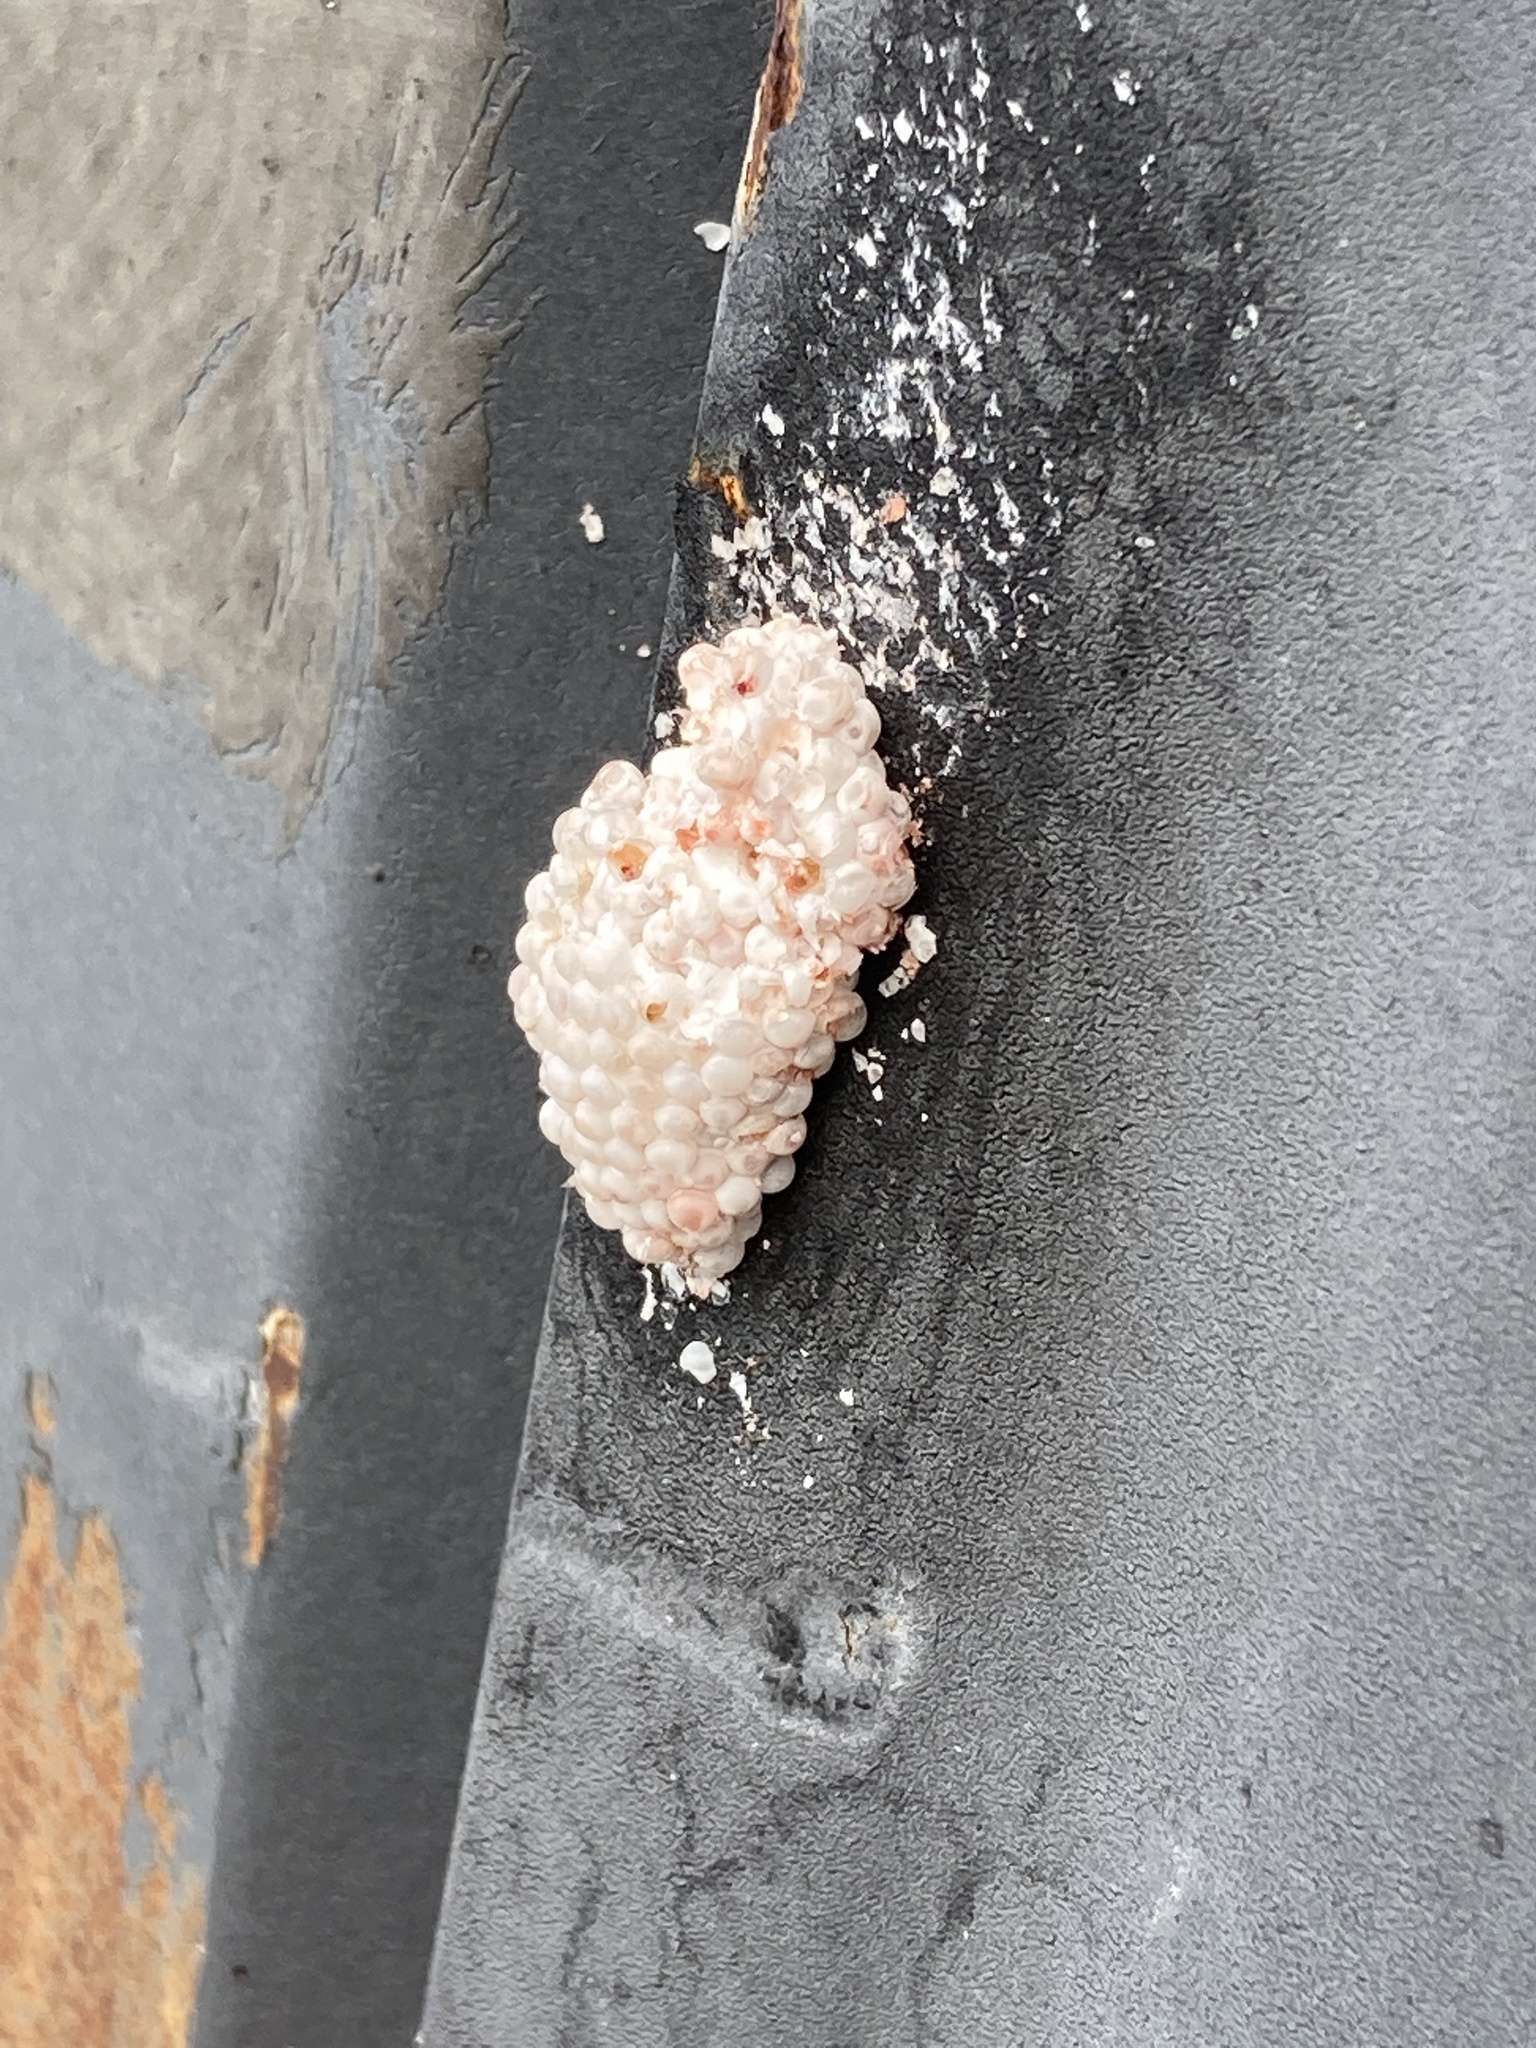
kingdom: Animalia
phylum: Mollusca
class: Gastropoda
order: Architaenioglossa
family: Ampullariidae
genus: Pomacea
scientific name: Pomacea maculata
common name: Giant applesnail
